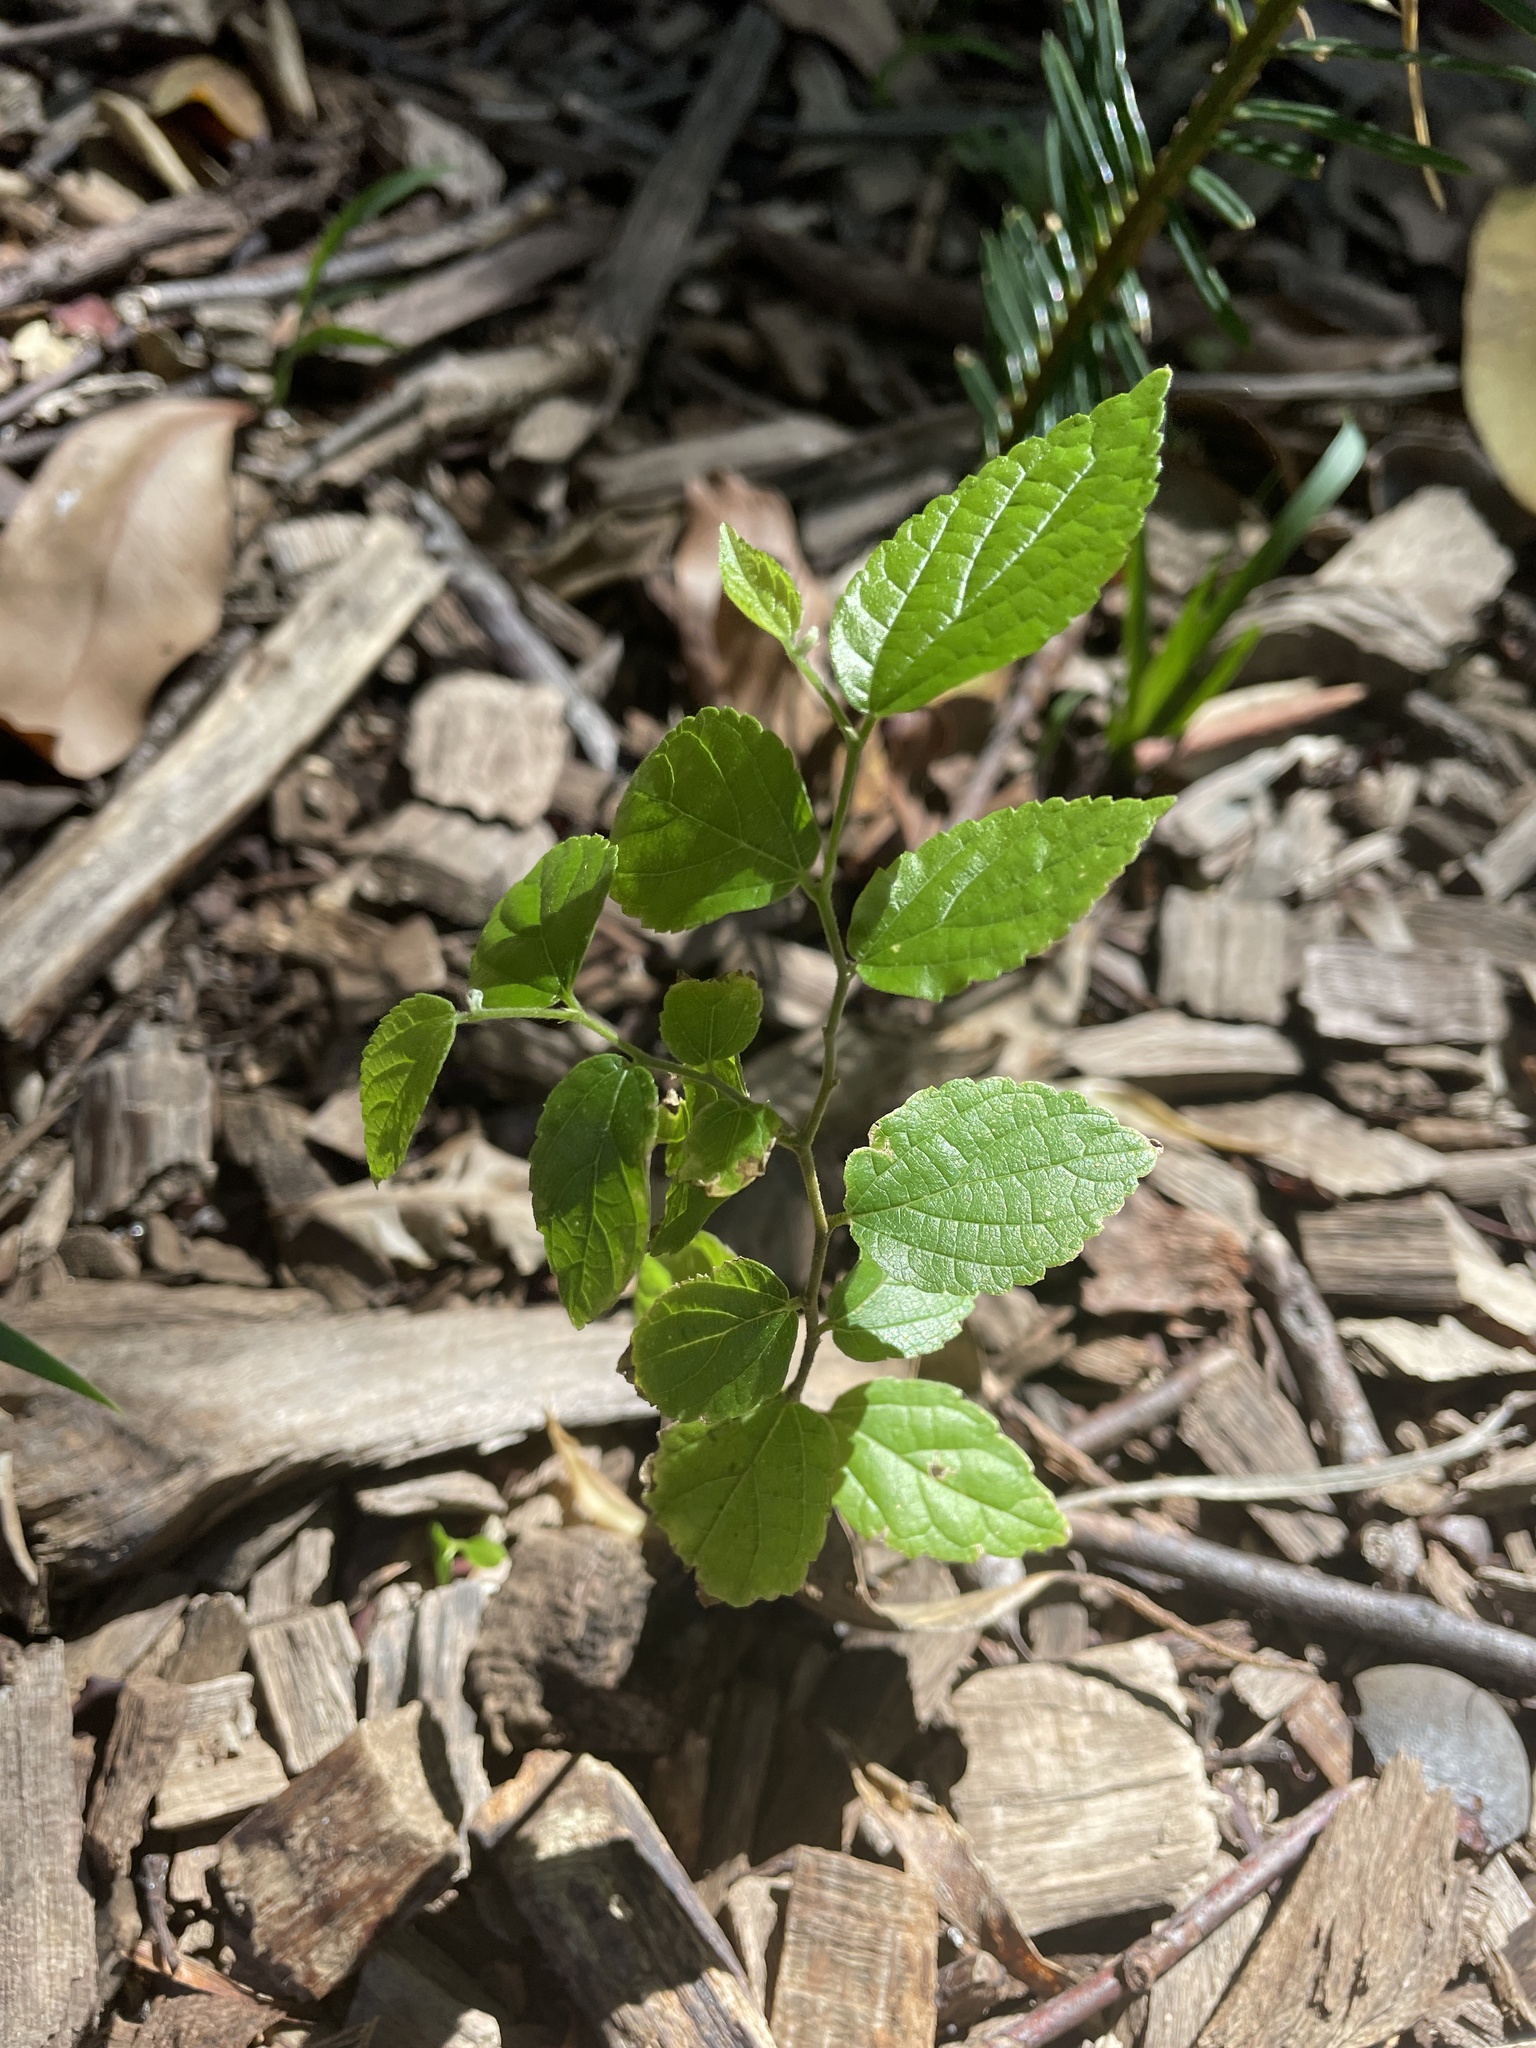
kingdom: Plantae
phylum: Tracheophyta
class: Magnoliopsida
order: Rosales
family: Cannabaceae
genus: Celtis
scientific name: Celtis sinensis
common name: Chinese hackberry
